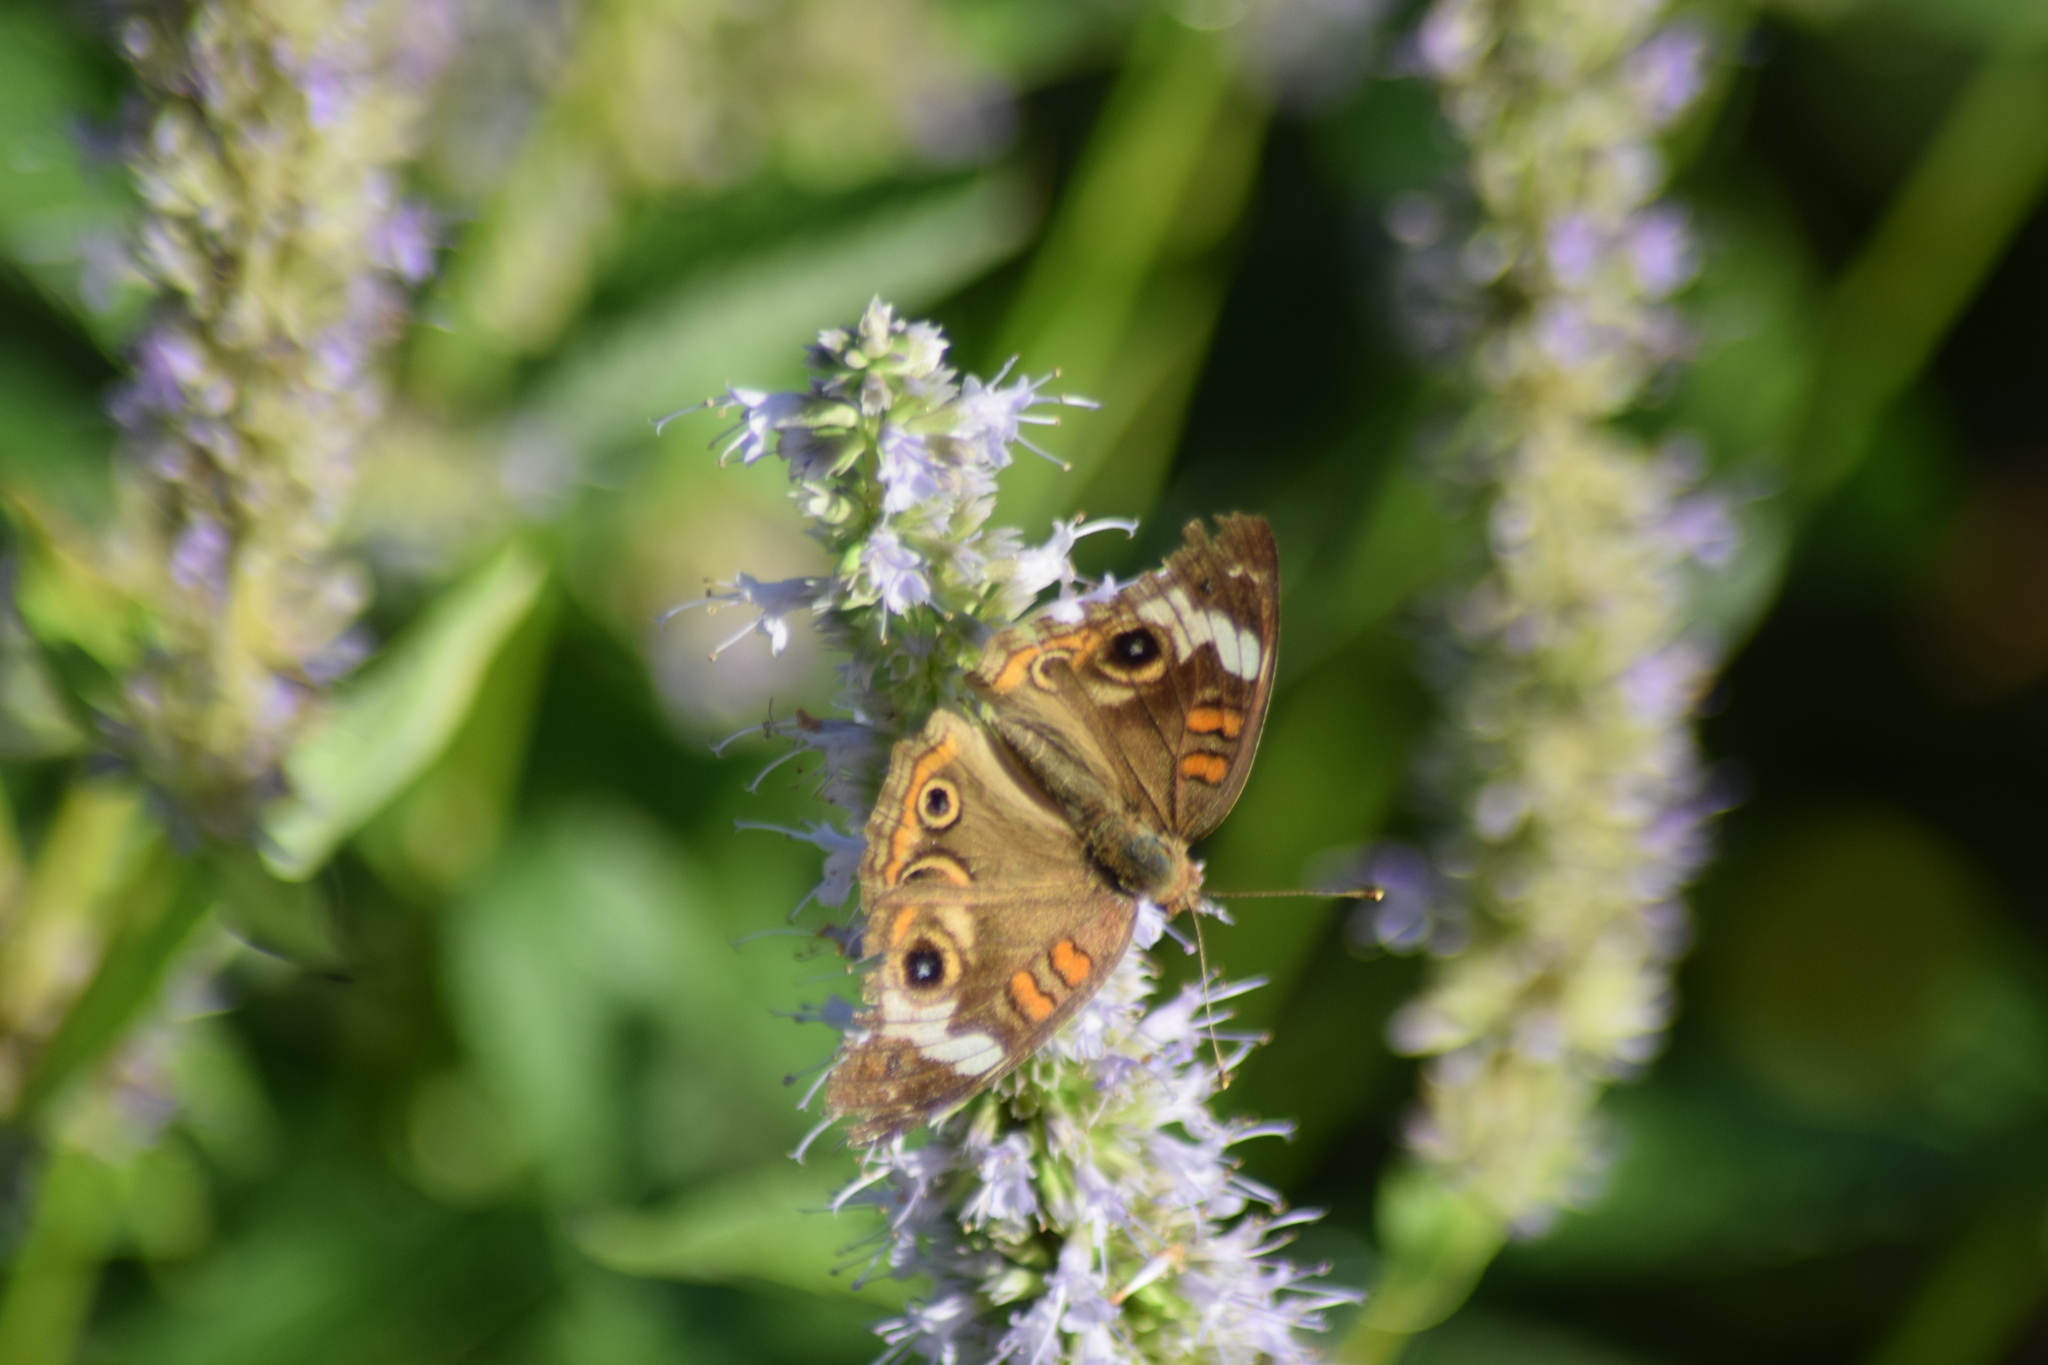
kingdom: Animalia
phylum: Arthropoda
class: Insecta
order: Lepidoptera
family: Nymphalidae
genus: Junonia
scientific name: Junonia coenia
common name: Common buckeye
